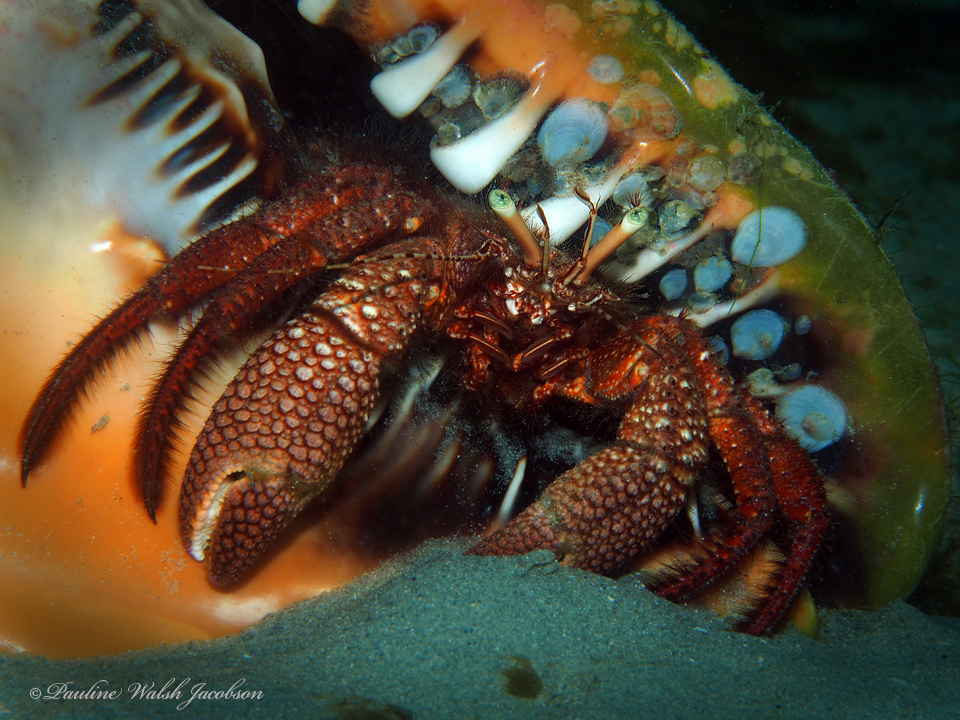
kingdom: Animalia
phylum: Arthropoda
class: Malacostraca
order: Decapoda
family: Diogenidae
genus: Petrochirus
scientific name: Petrochirus diogenes
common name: Giant hermit crab
